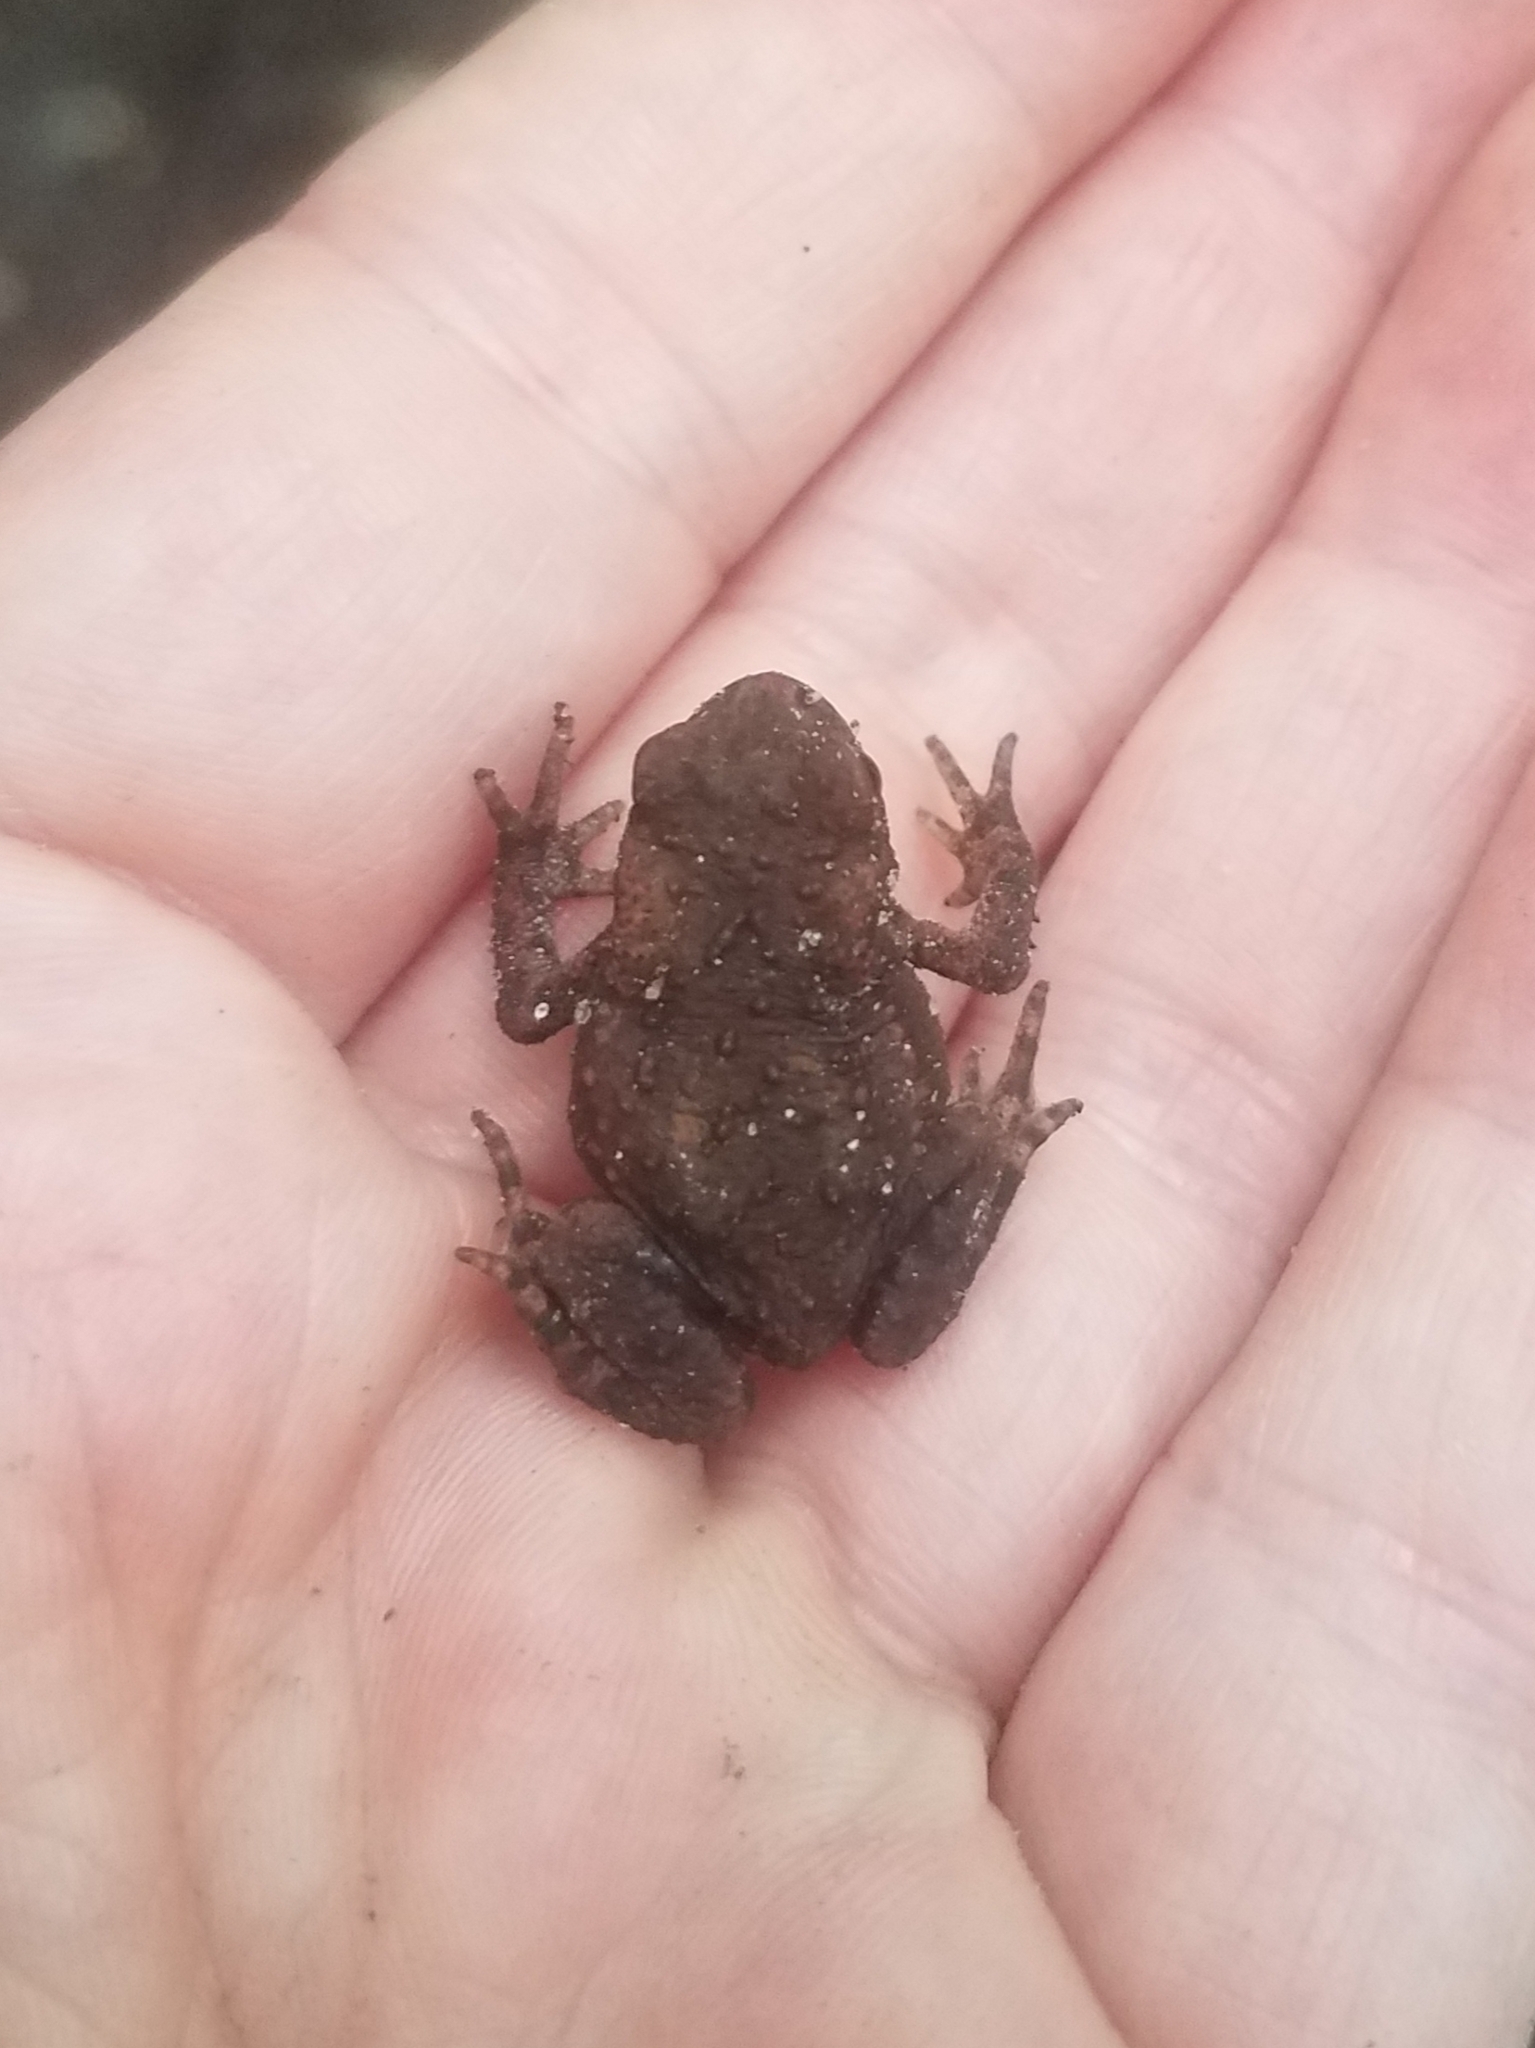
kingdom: Animalia
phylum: Chordata
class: Amphibia
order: Anura
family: Bufonidae
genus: Bufo
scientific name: Bufo bufo
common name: Common toad
